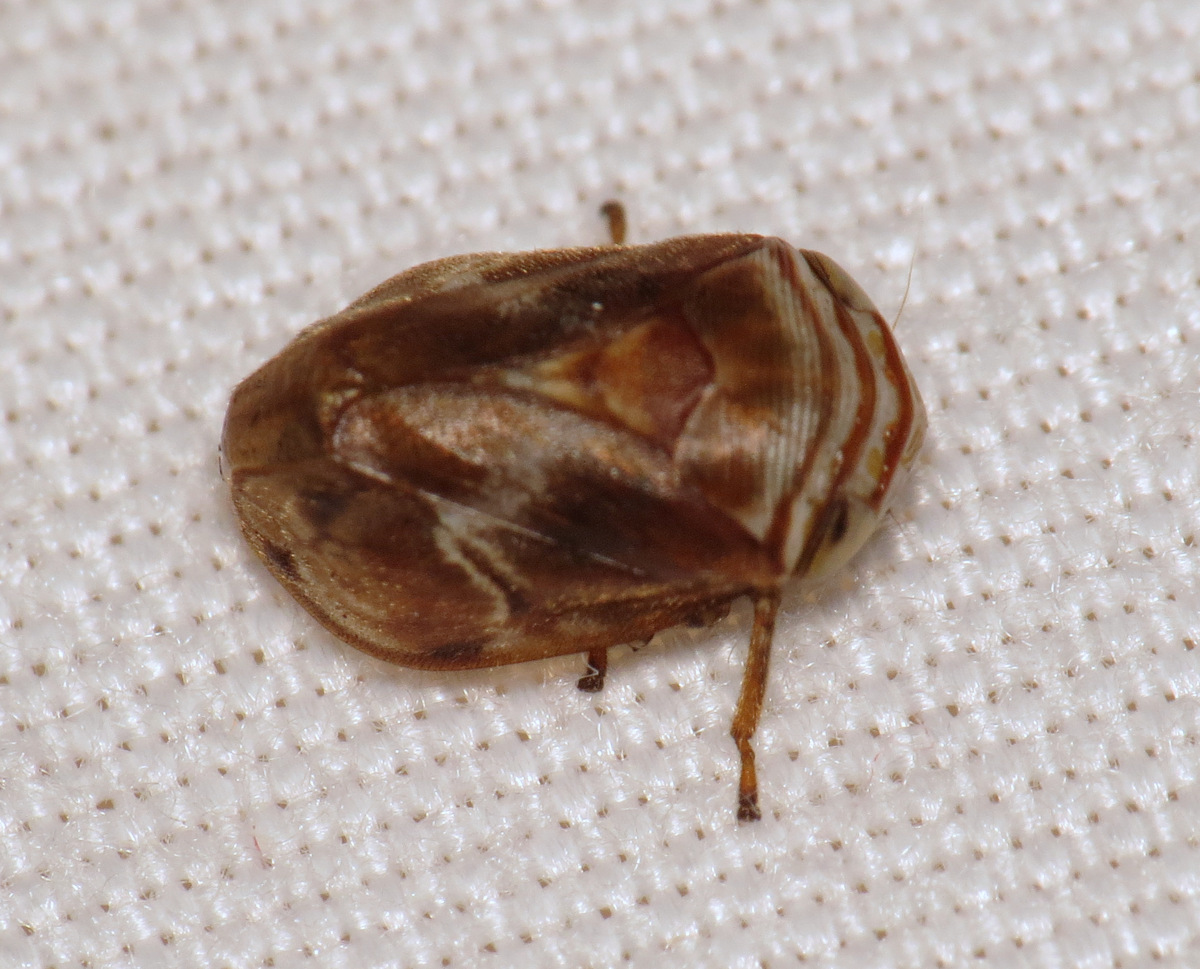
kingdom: Animalia
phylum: Arthropoda
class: Insecta
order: Hemiptera
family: Clastopteridae
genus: Clastoptera
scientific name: Clastoptera obtusa
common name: Alder spittlebug
